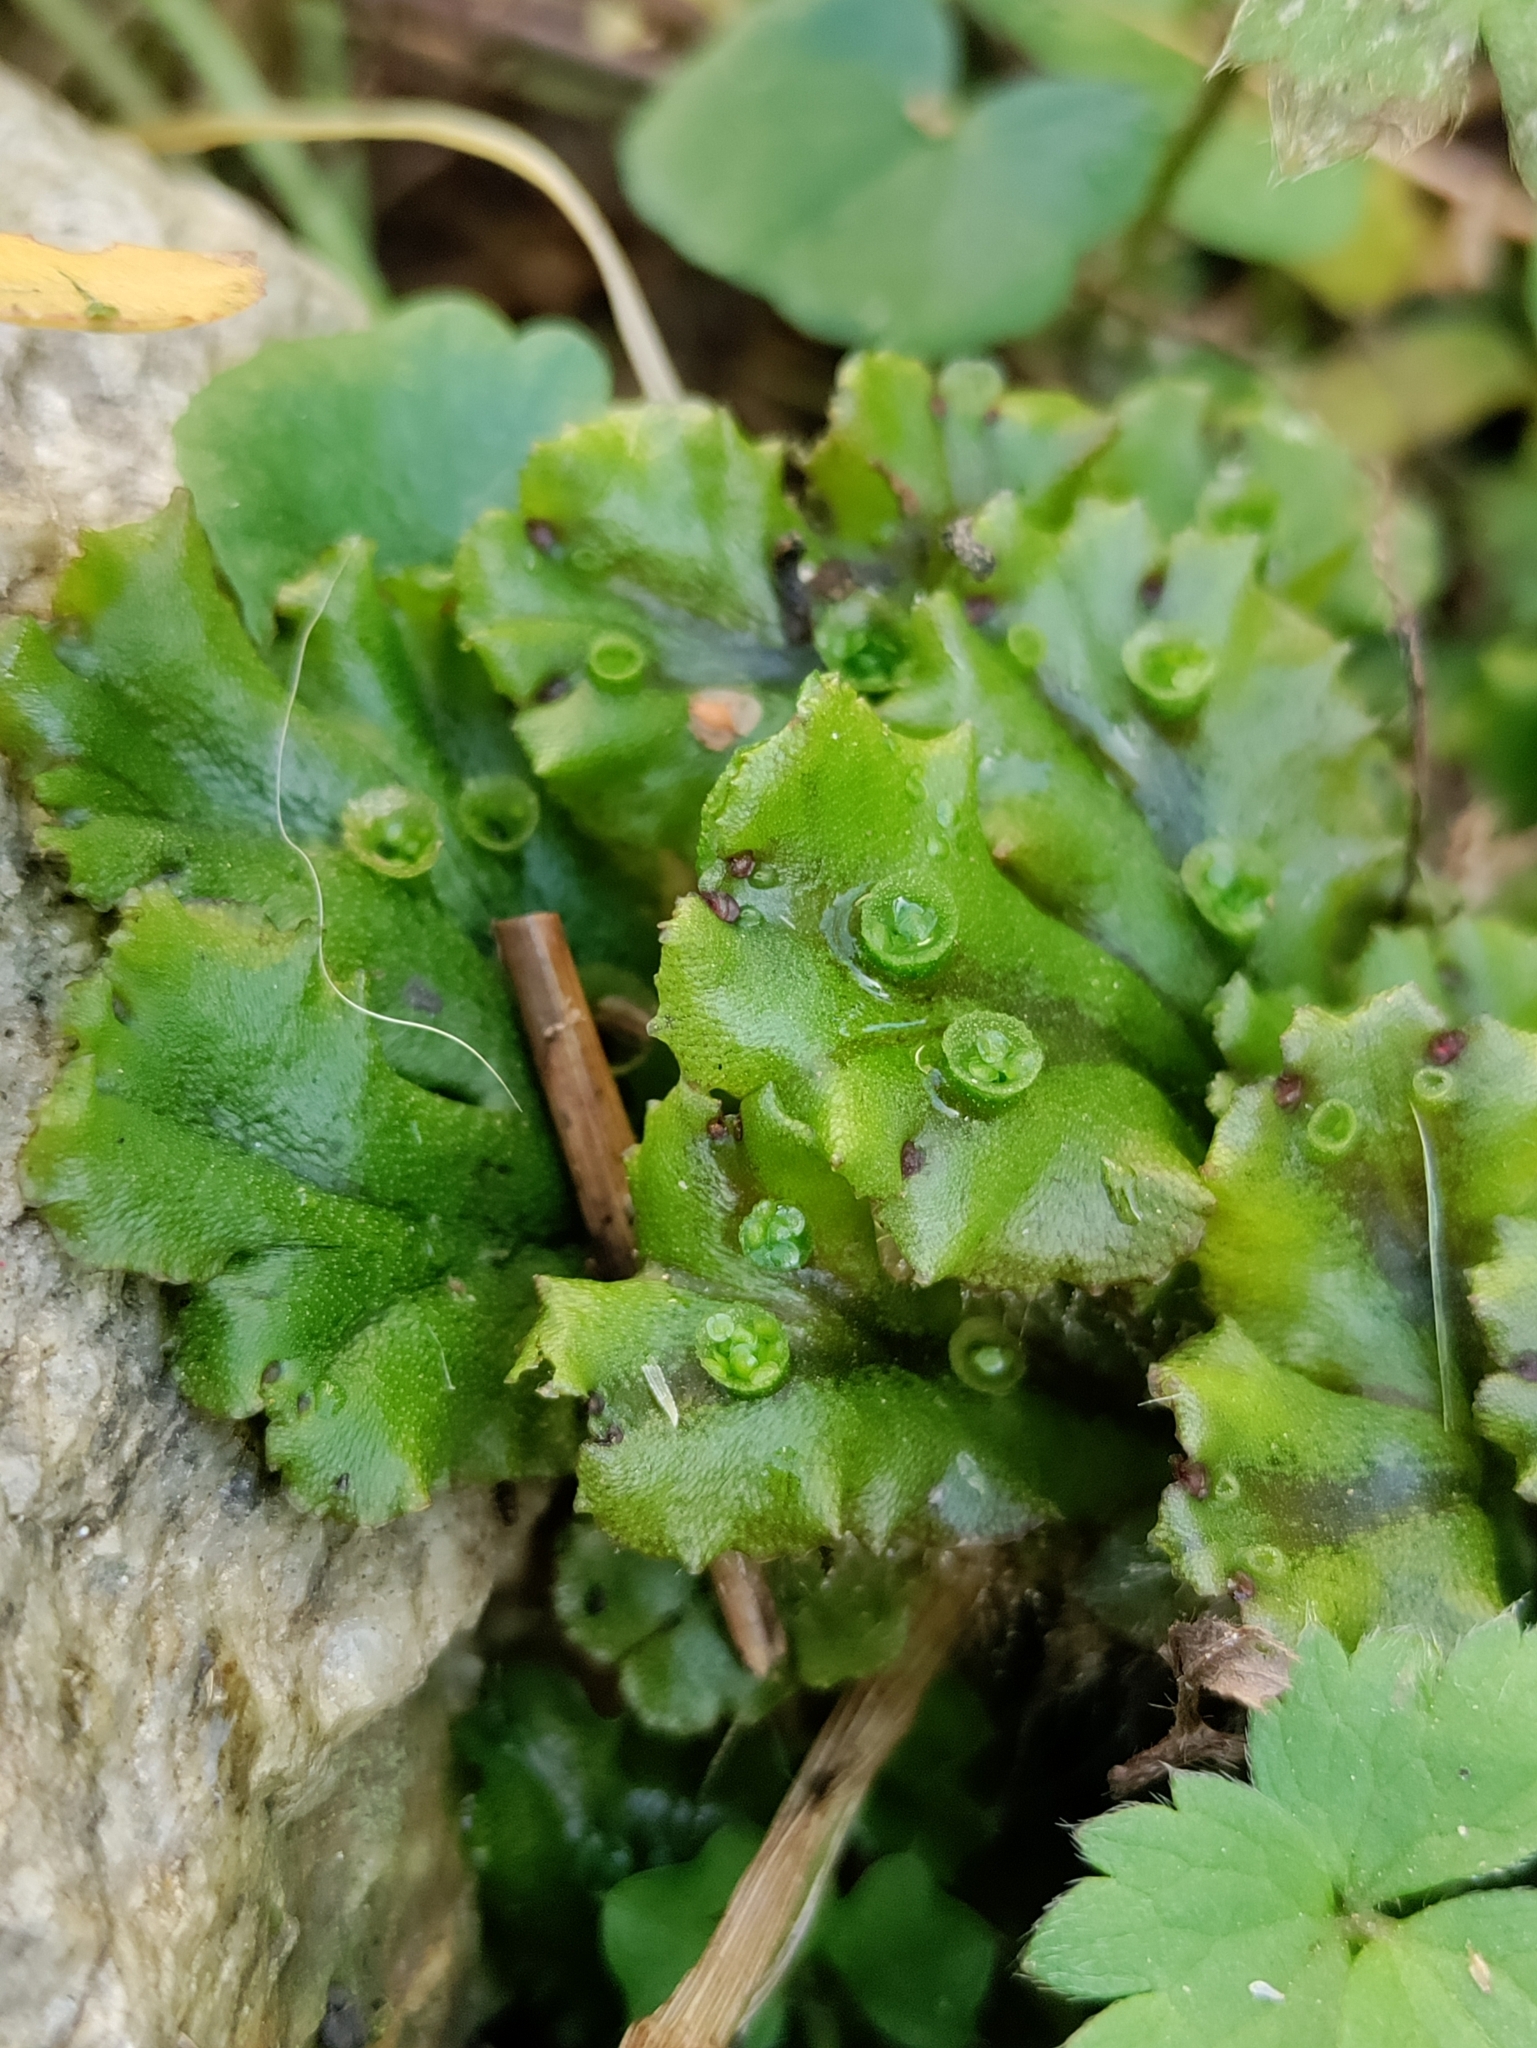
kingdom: Plantae
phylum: Marchantiophyta
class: Marchantiopsida
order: Marchantiales
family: Marchantiaceae
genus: Marchantia
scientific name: Marchantia polymorpha
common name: Common liverwort
